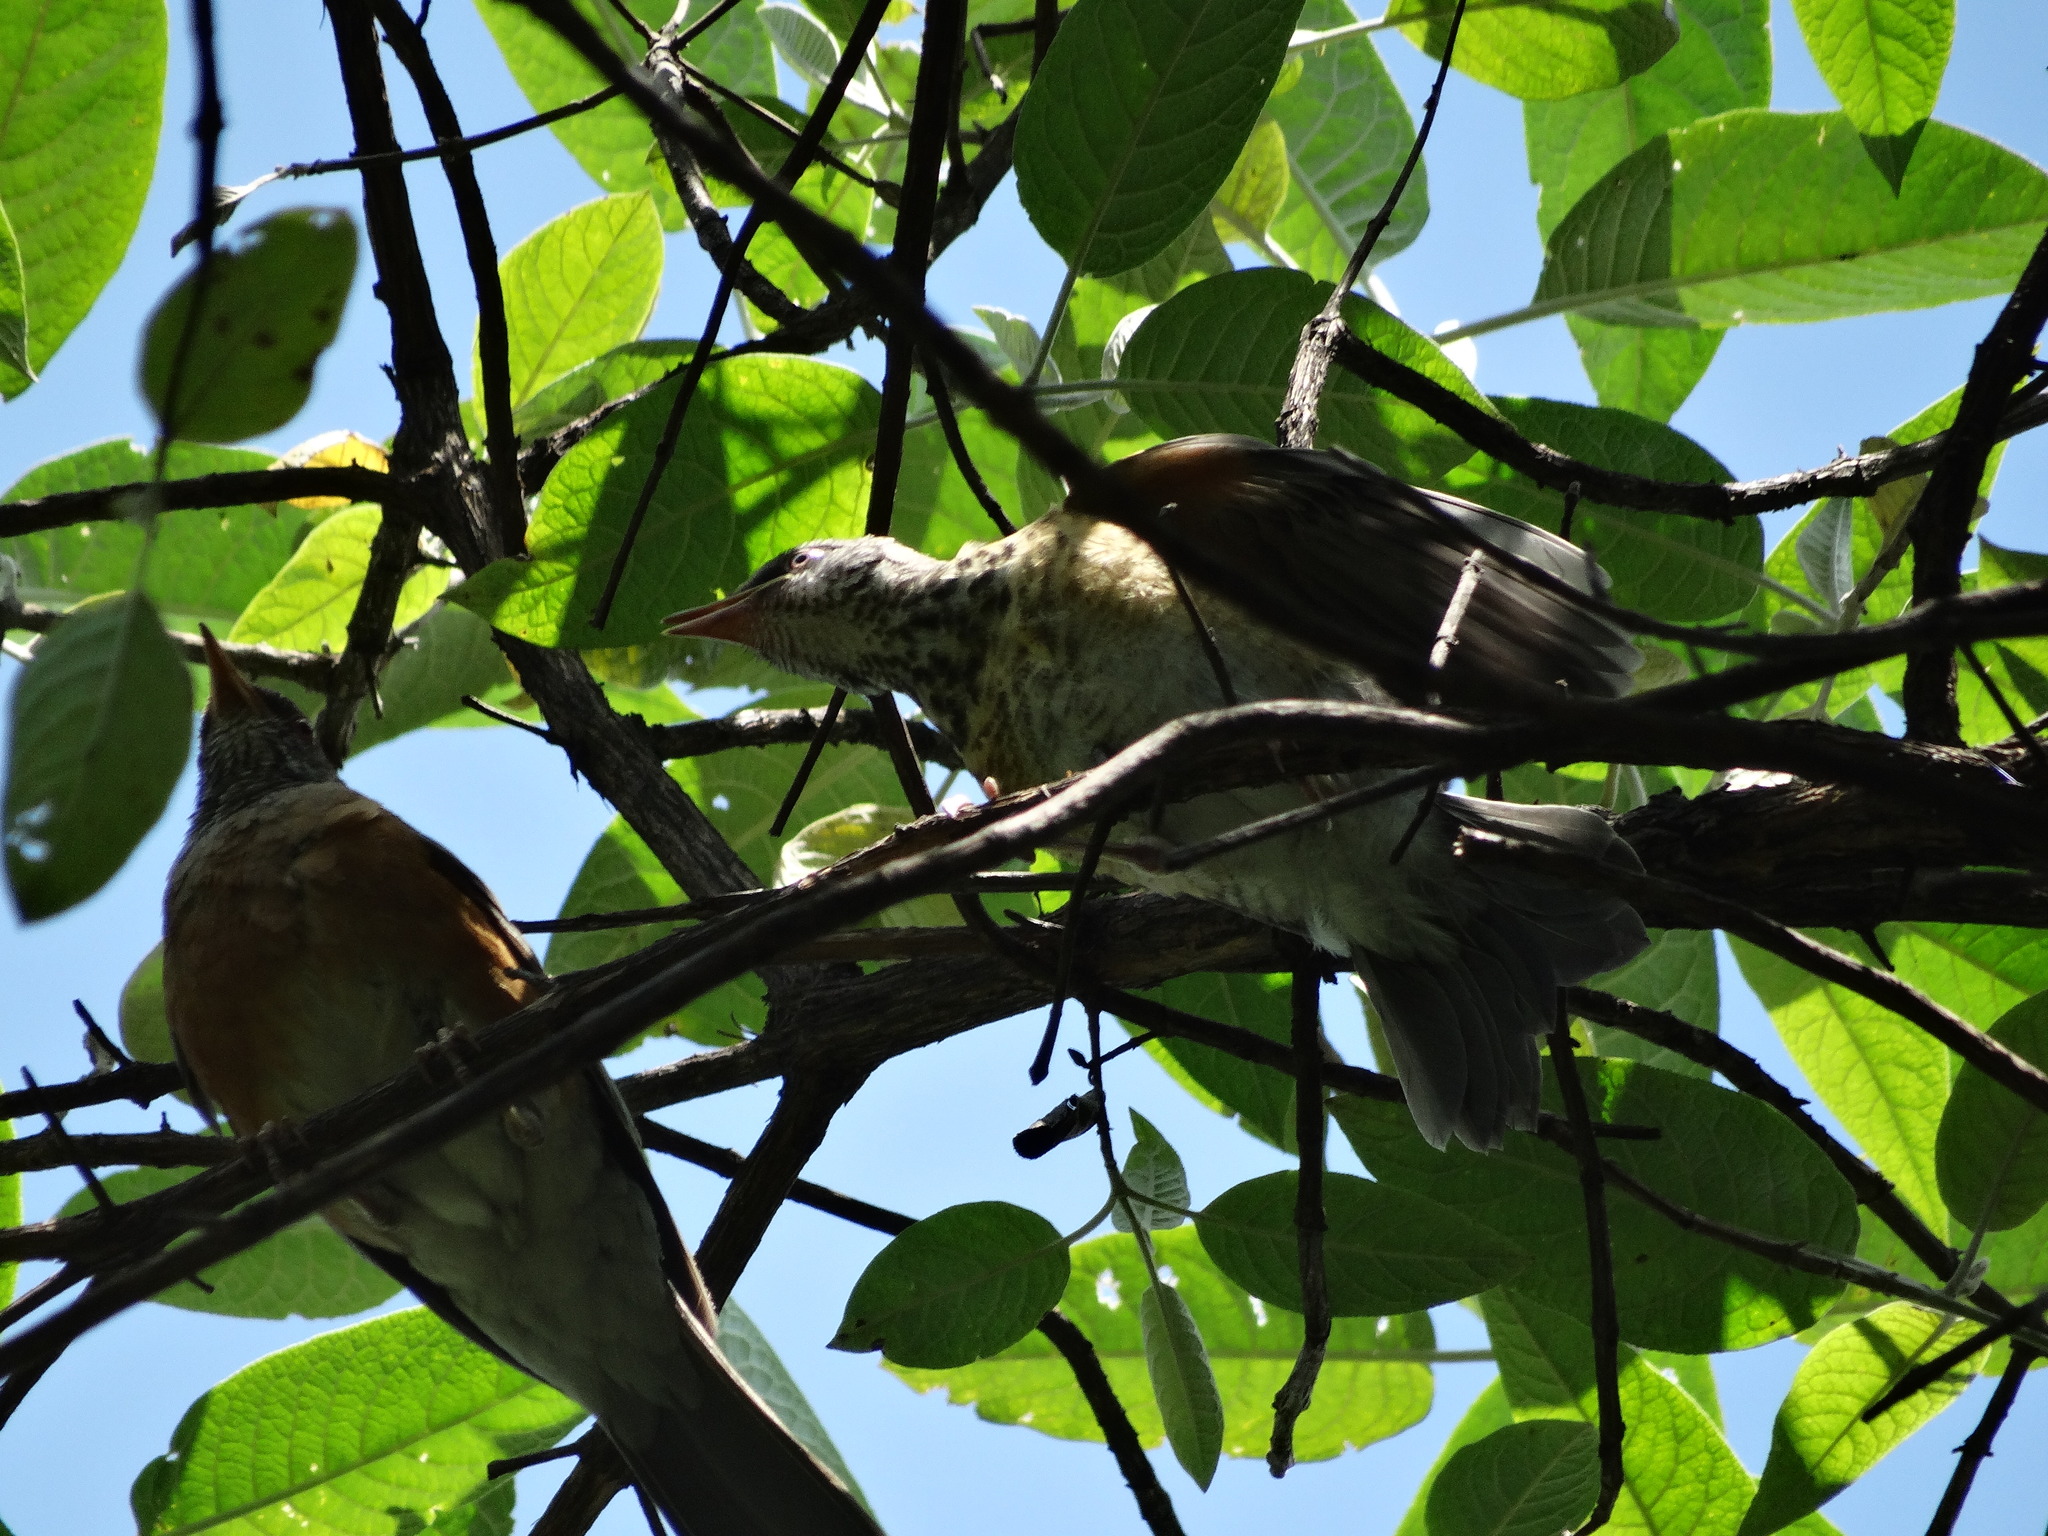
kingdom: Animalia
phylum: Chordata
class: Aves
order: Passeriformes
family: Turdidae
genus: Turdus
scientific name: Turdus rufopalliatus
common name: Rufous-backed robin
